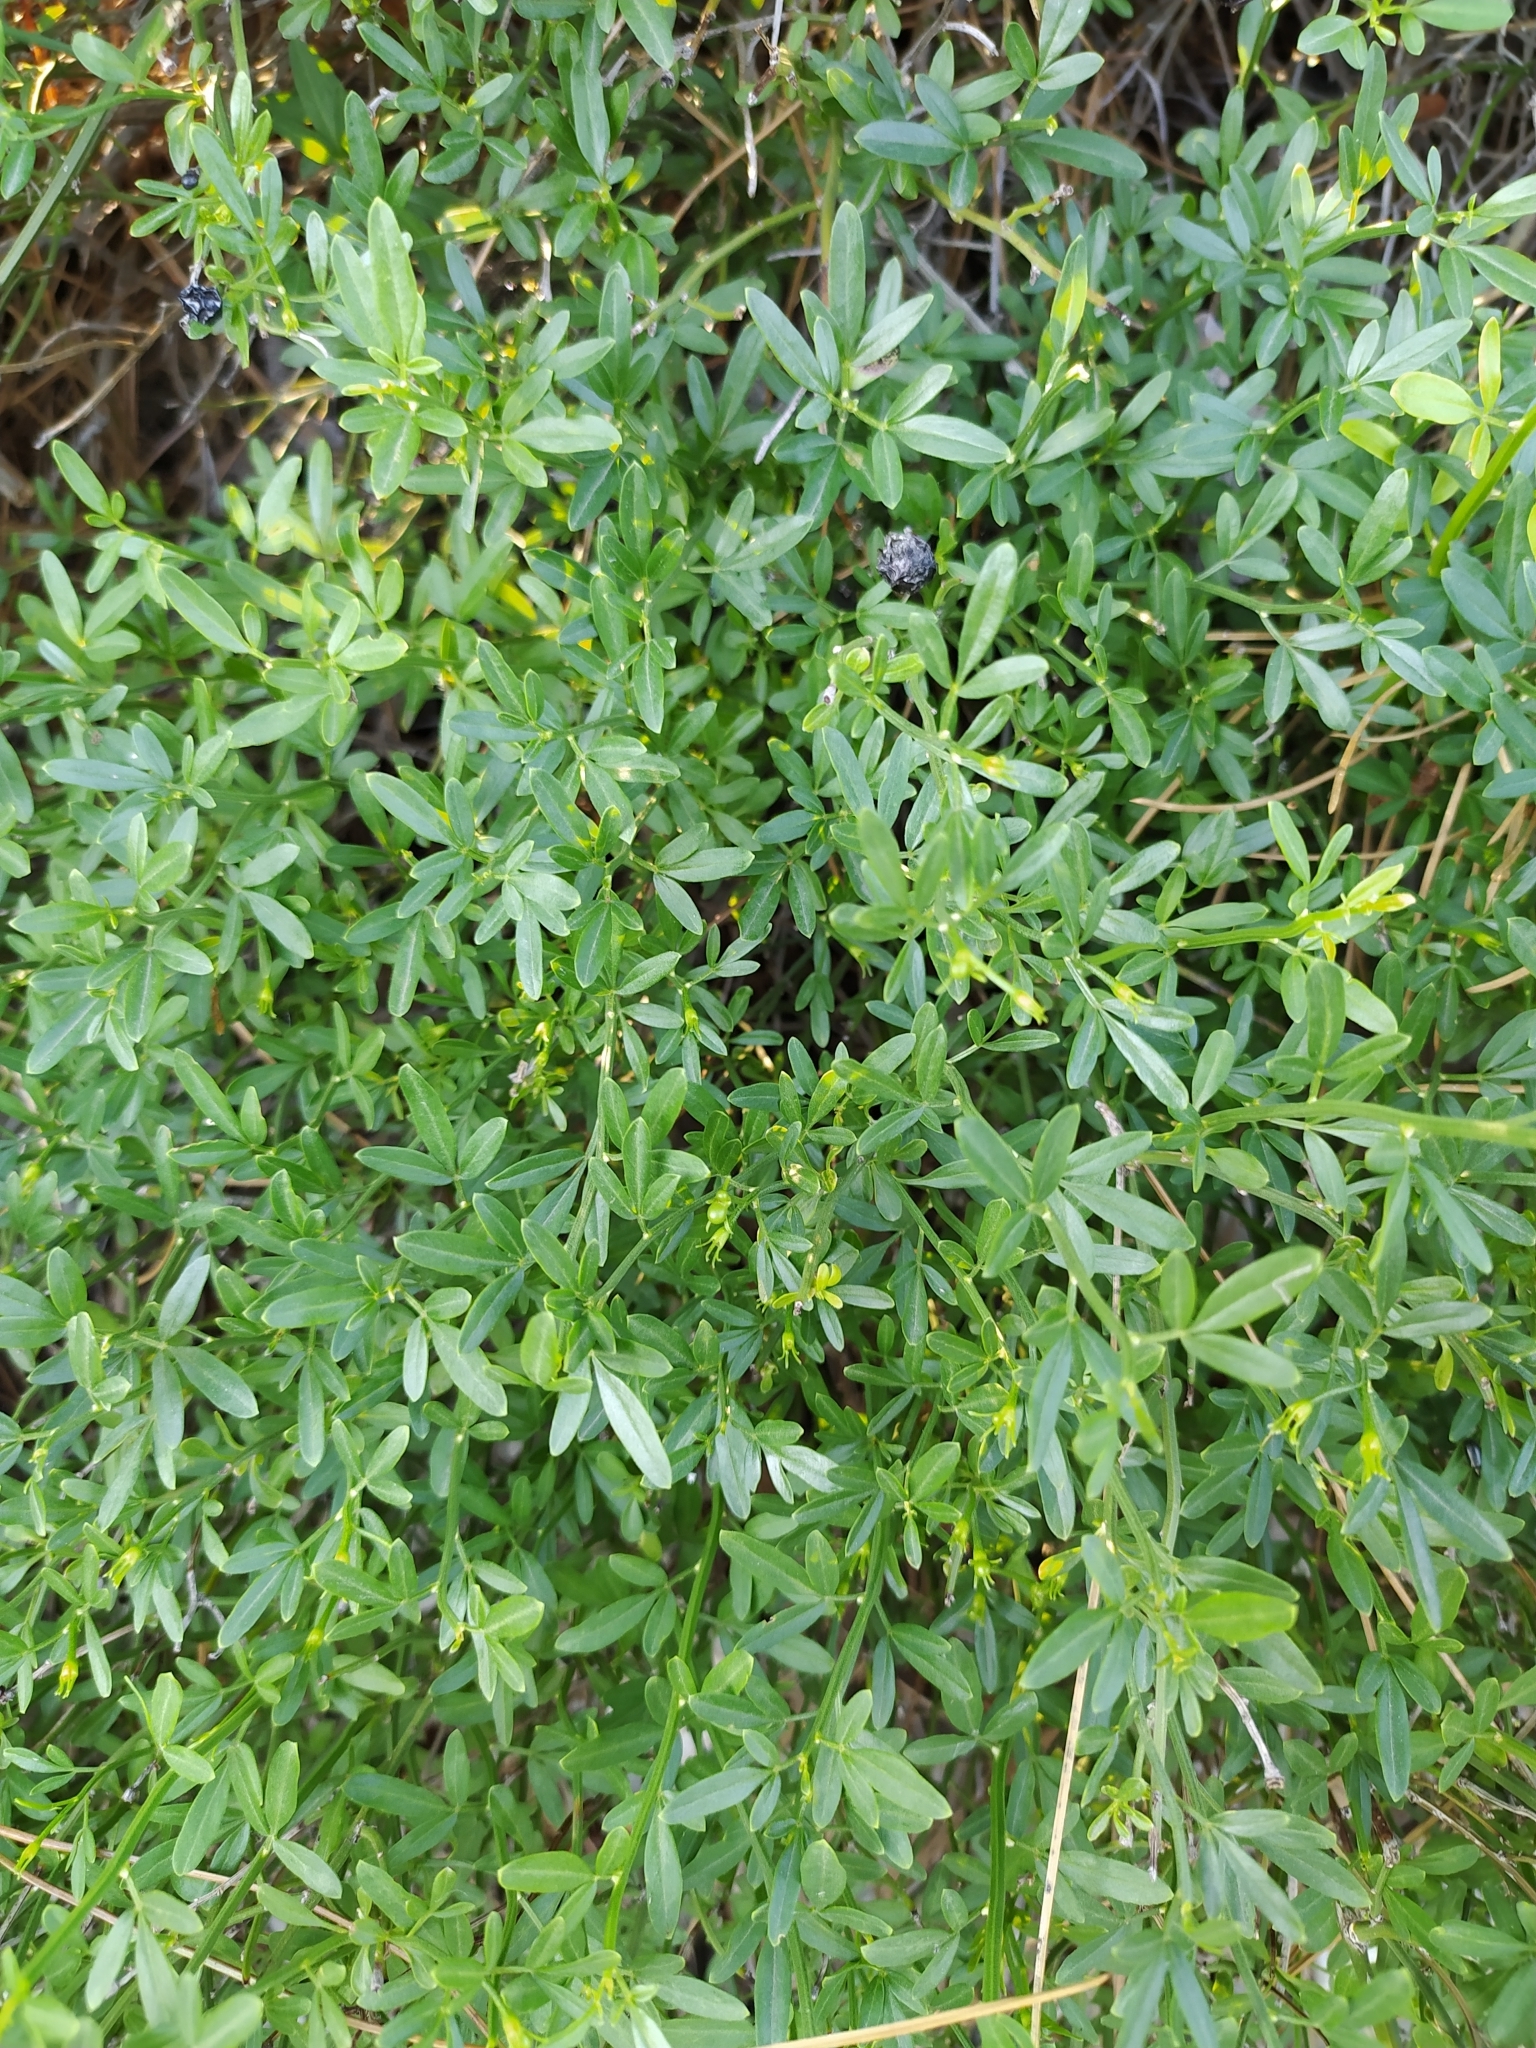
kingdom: Plantae
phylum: Tracheophyta
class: Magnoliopsida
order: Lamiales
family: Oleaceae
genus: Chrysojasminum
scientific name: Chrysojasminum fruticans
